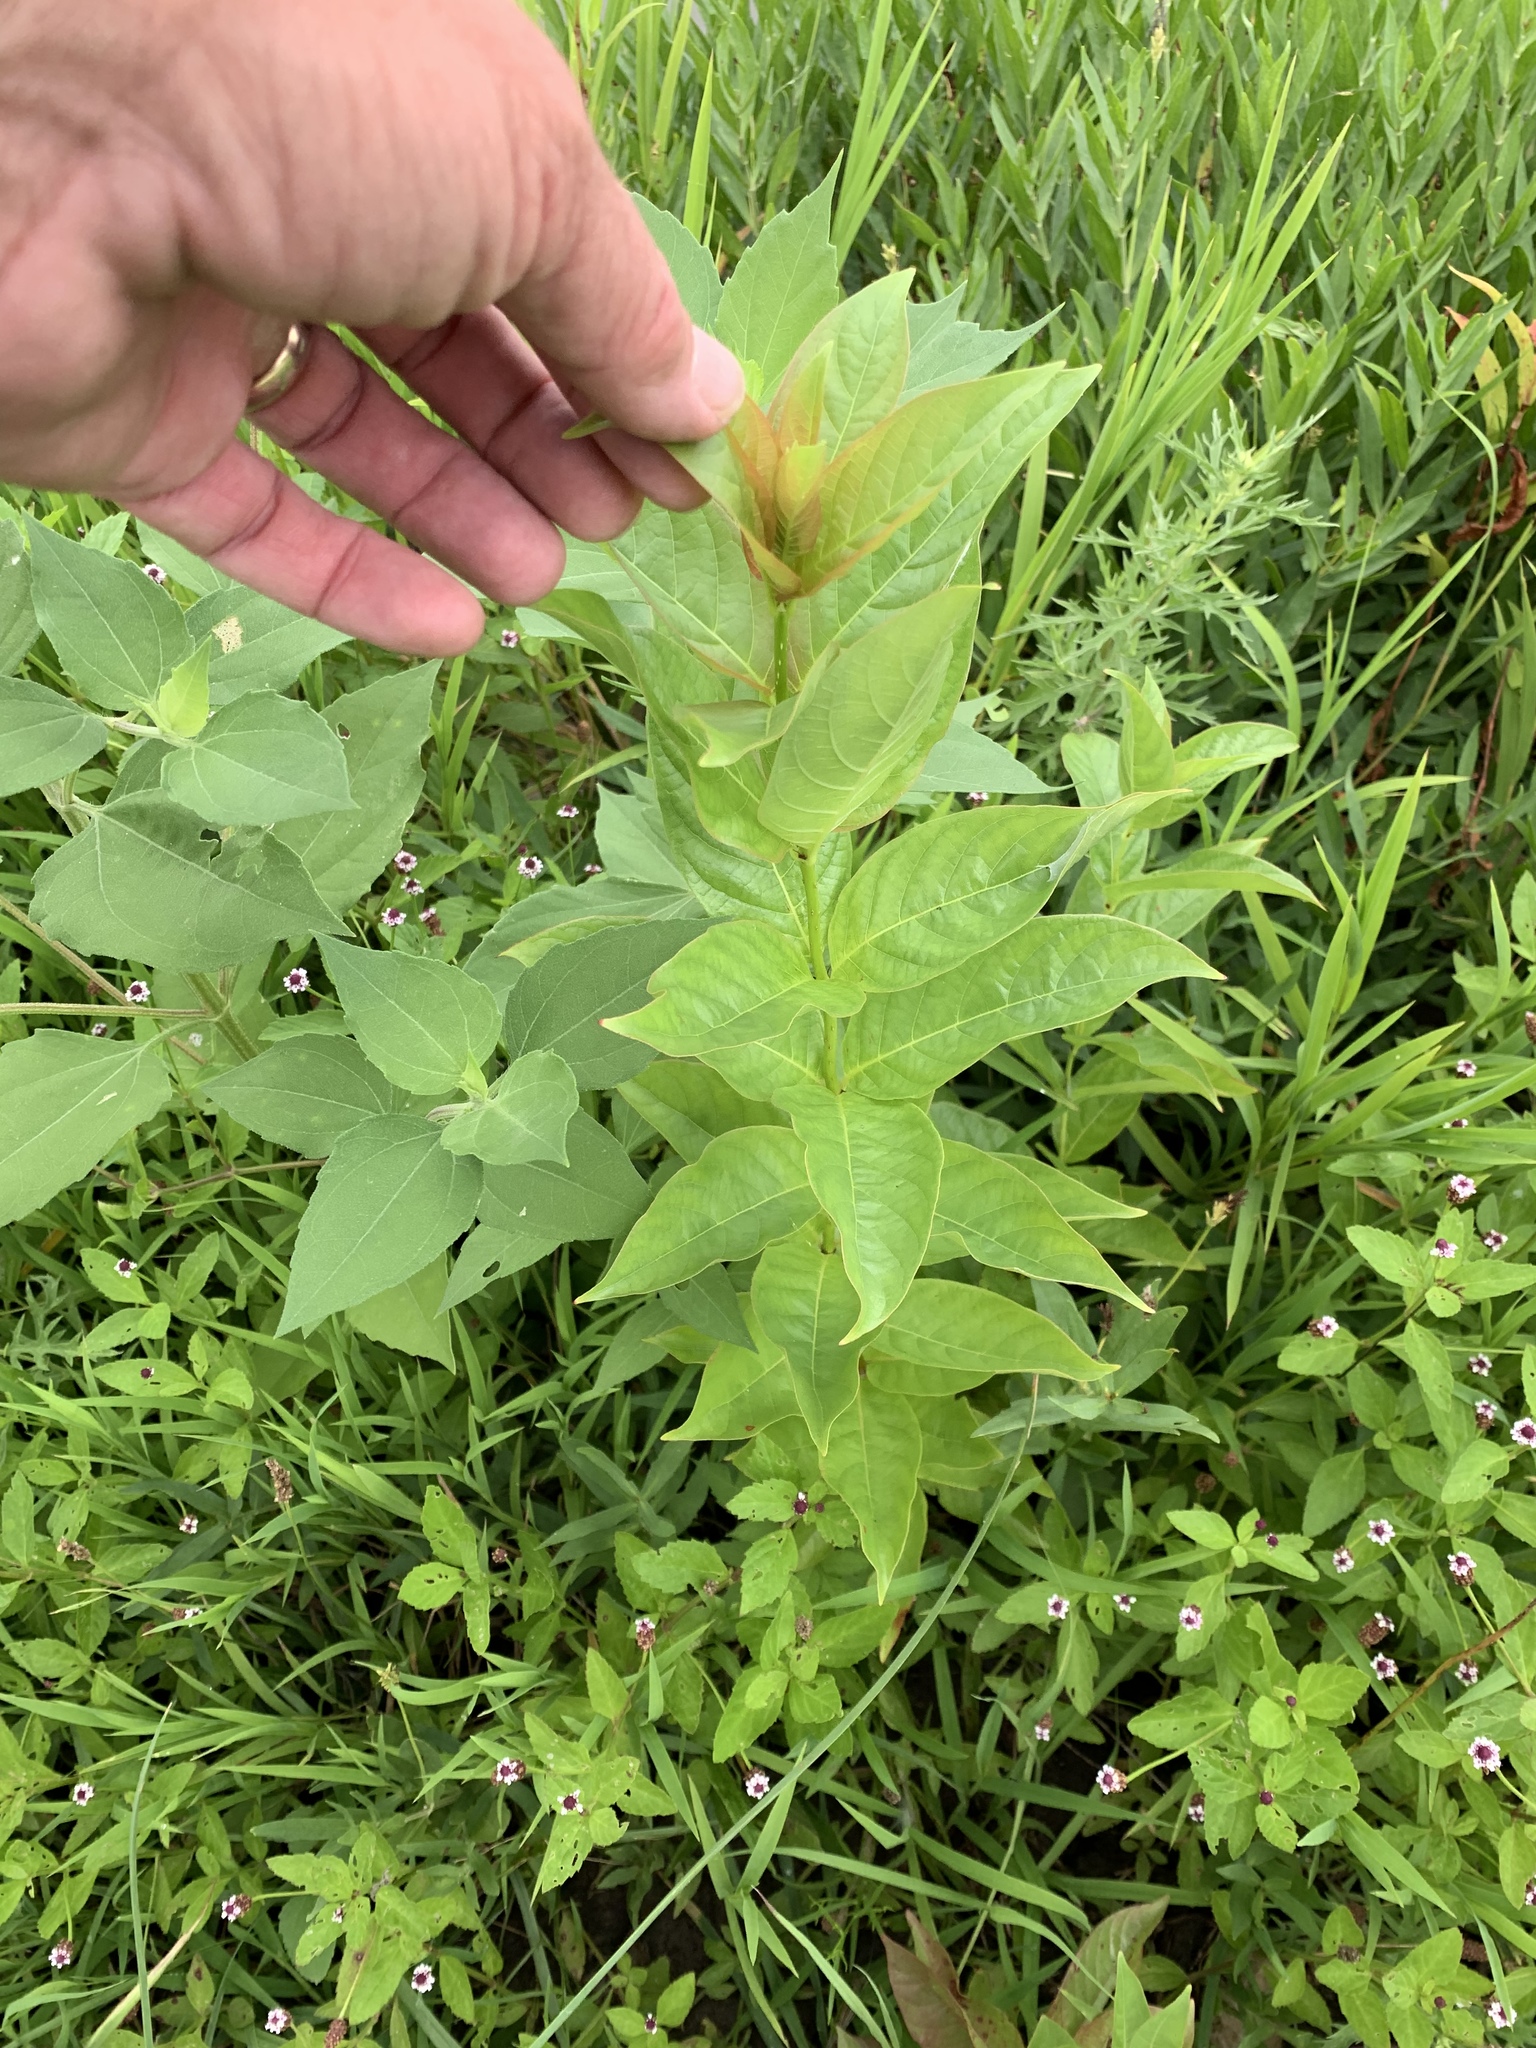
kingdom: Plantae
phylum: Tracheophyta
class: Magnoliopsida
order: Gentianales
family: Rubiaceae
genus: Cephalanthus
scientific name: Cephalanthus occidentalis
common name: Button-willow
